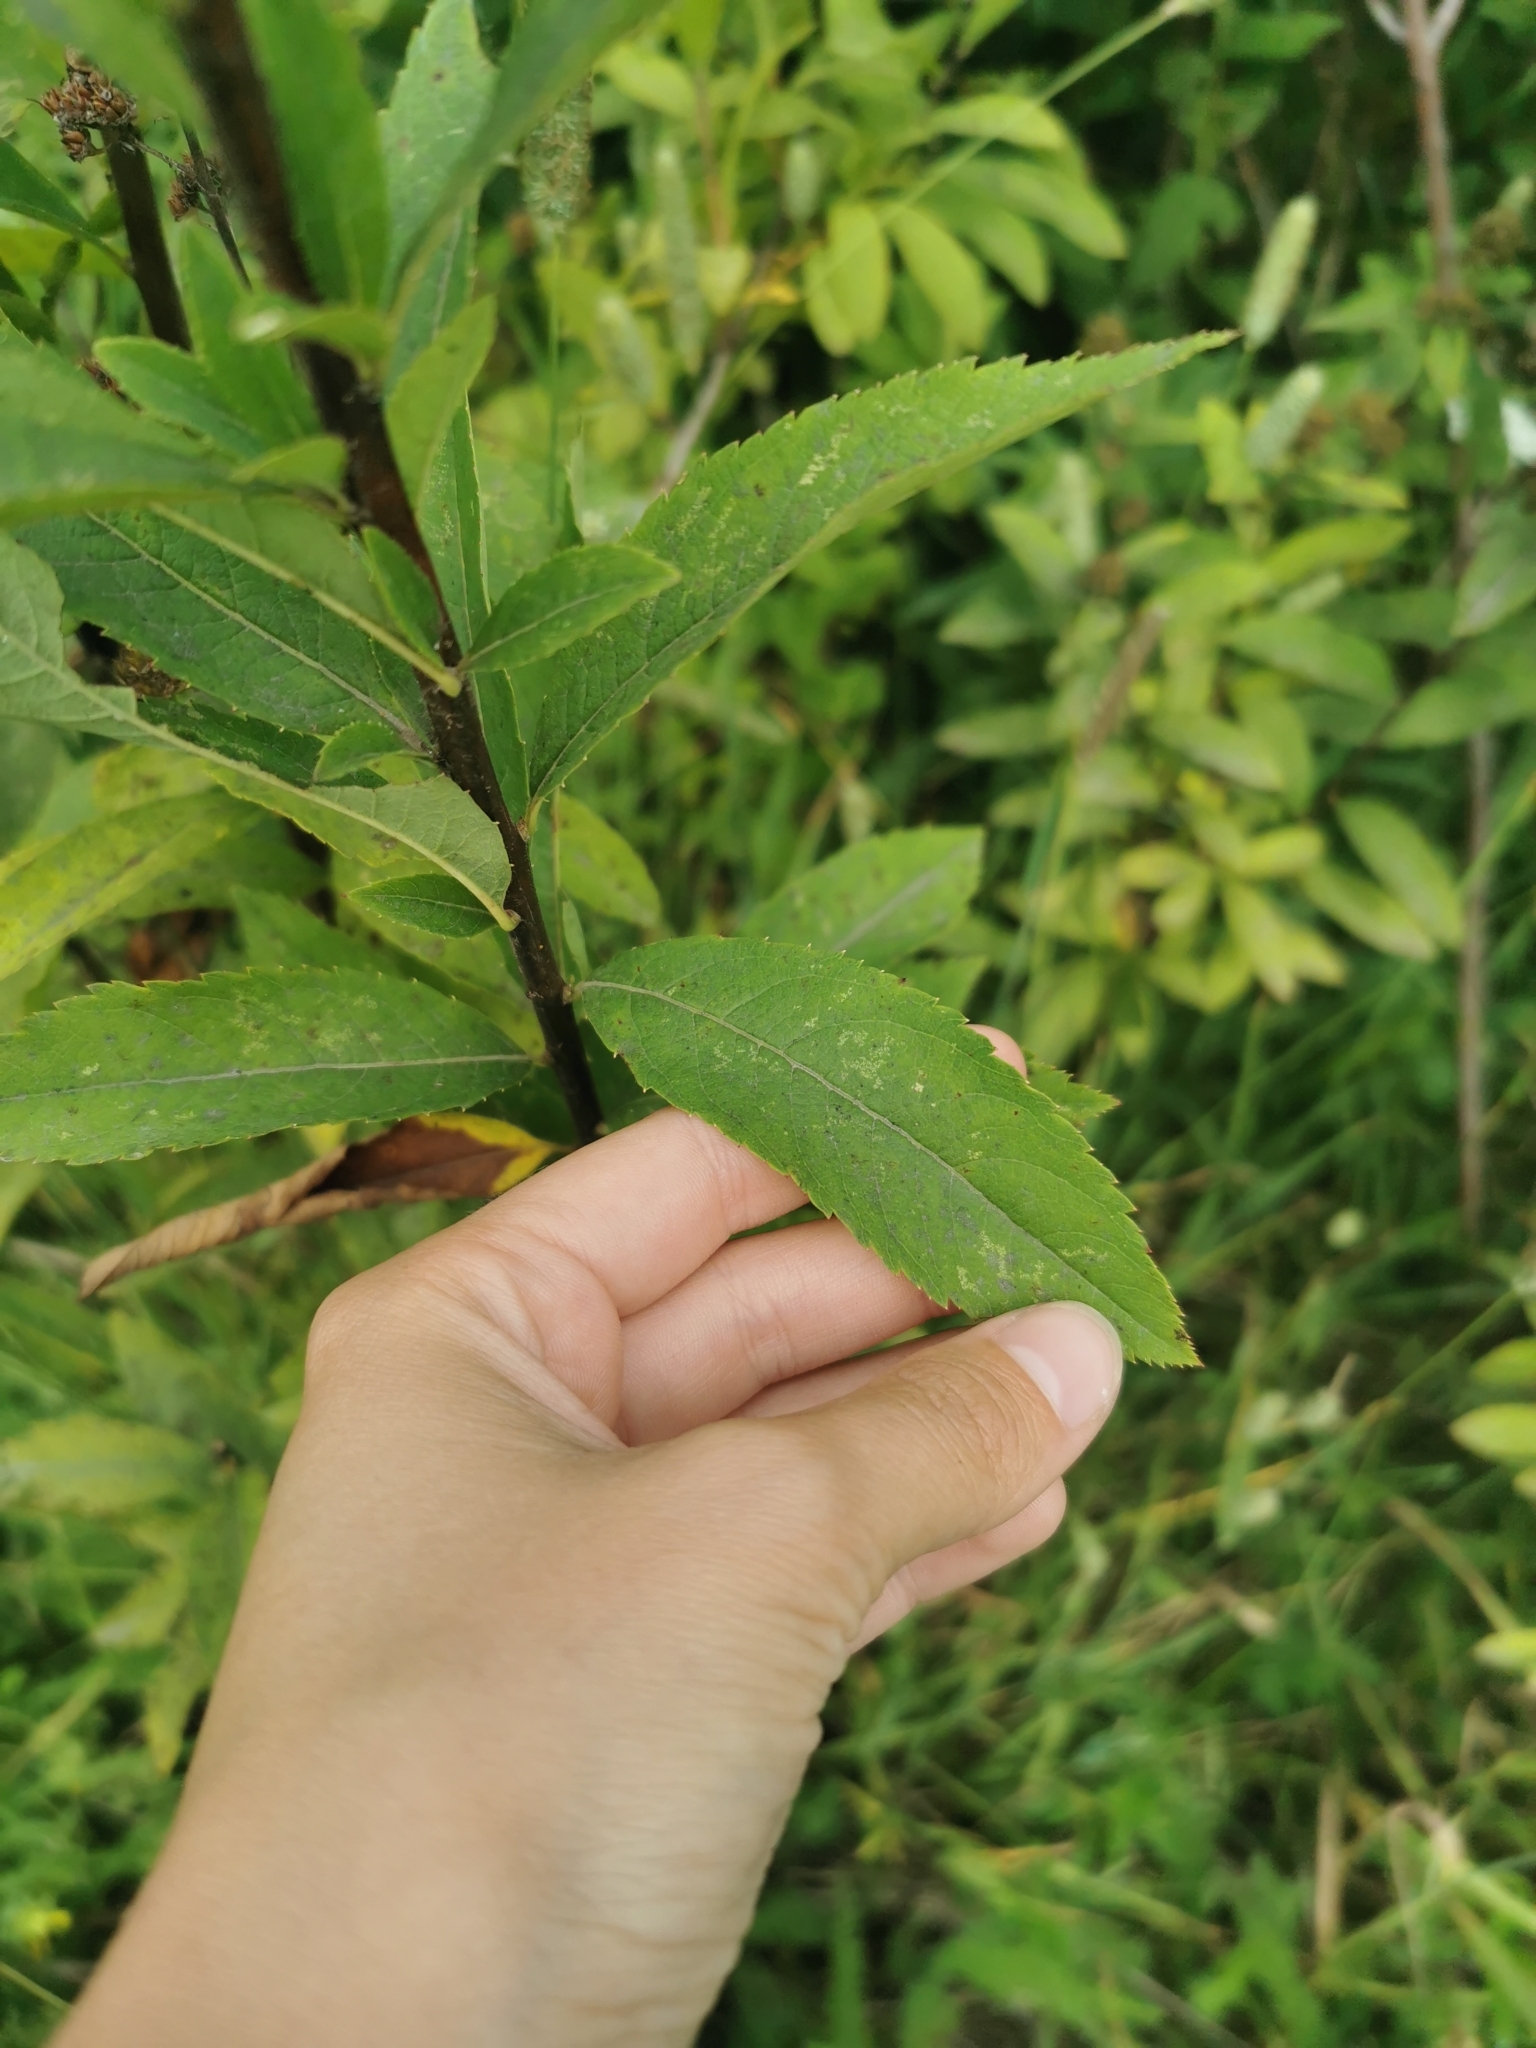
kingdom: Plantae
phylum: Tracheophyta
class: Magnoliopsida
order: Rosales
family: Rosaceae
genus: Spiraea
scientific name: Spiraea salicifolia
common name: Bridewort
